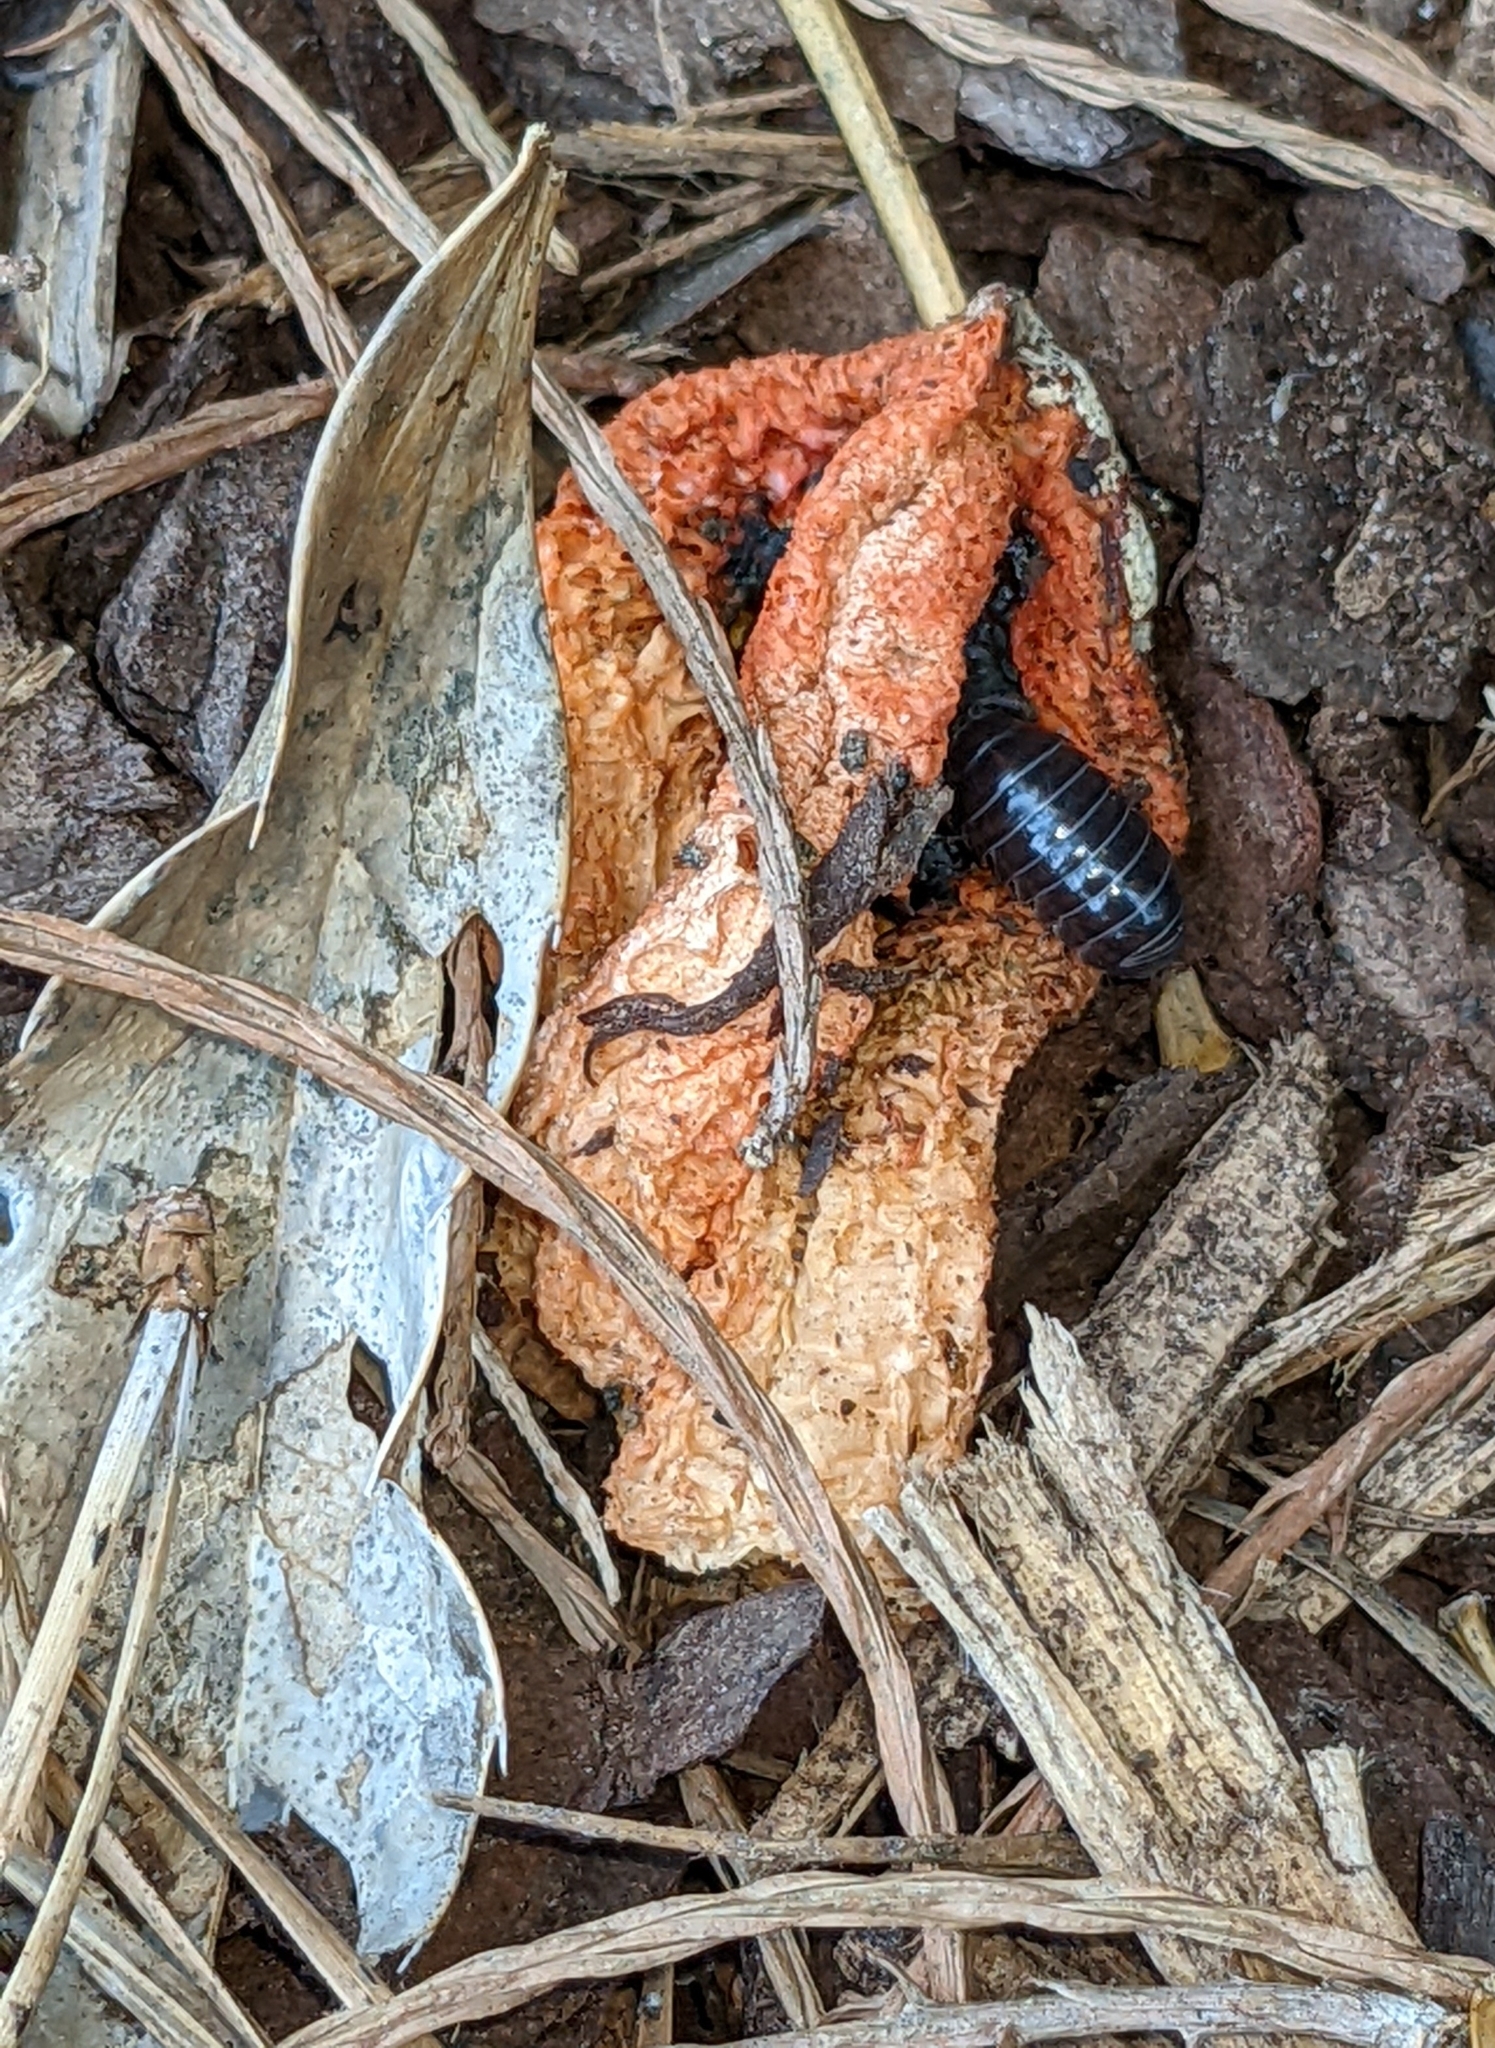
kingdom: Fungi
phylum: Basidiomycota
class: Agaricomycetes
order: Phallales
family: Phallaceae
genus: Clathrus
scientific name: Clathrus columnatus
